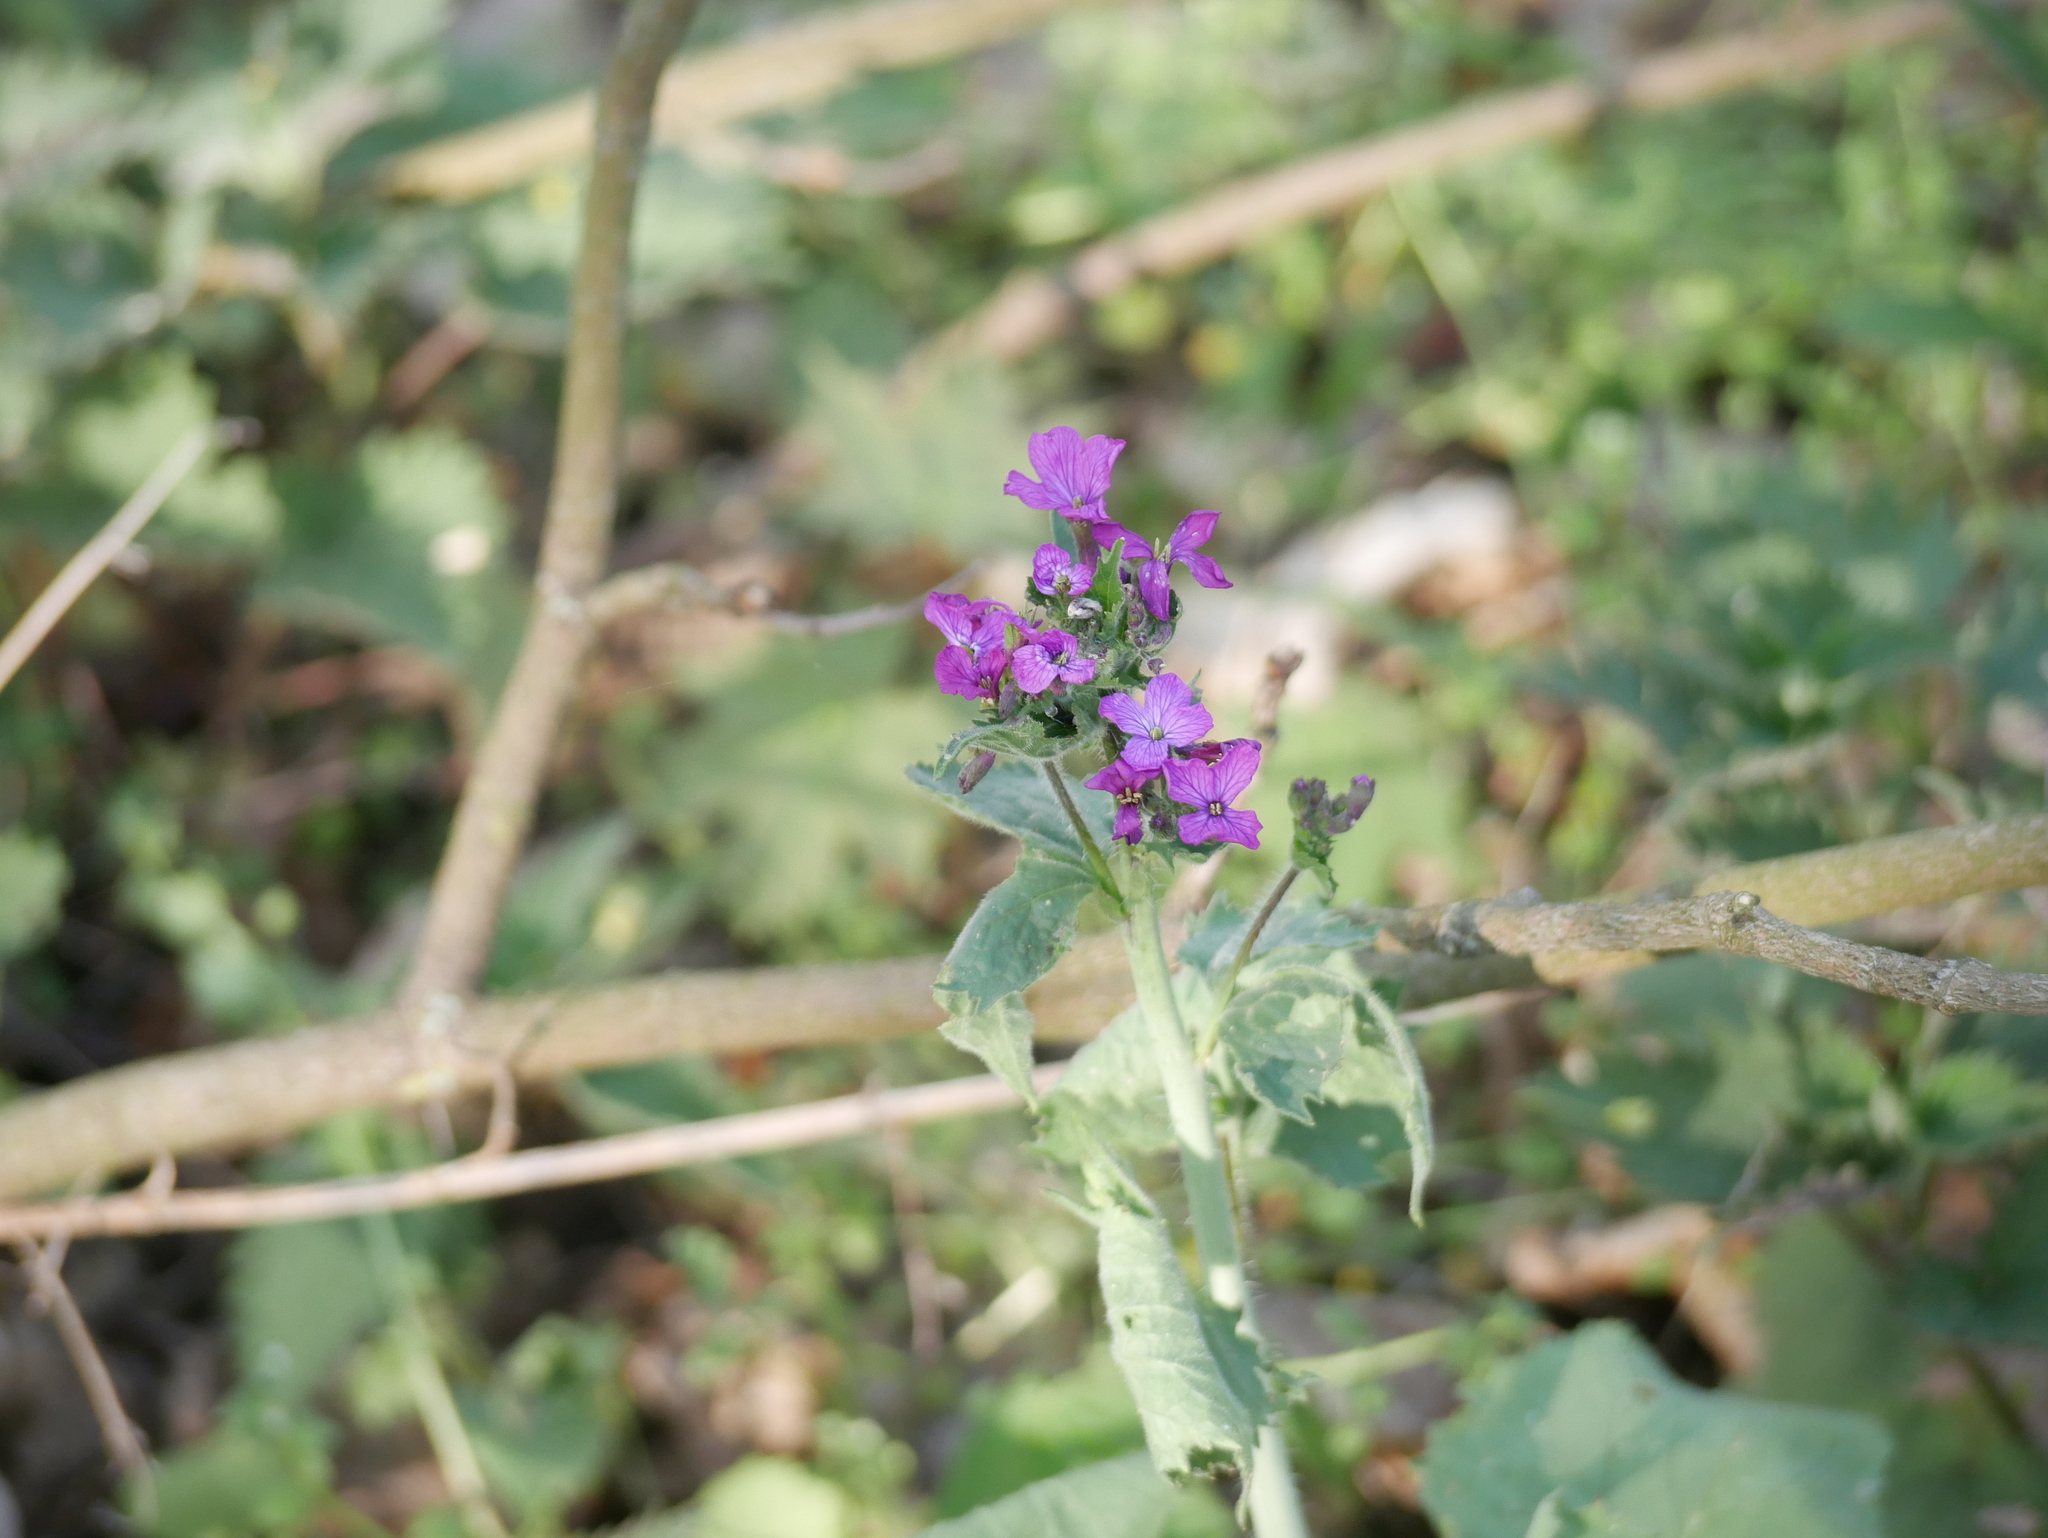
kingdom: Plantae
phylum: Tracheophyta
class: Magnoliopsida
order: Brassicales
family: Brassicaceae
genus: Lunaria
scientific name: Lunaria annua
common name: Honesty
